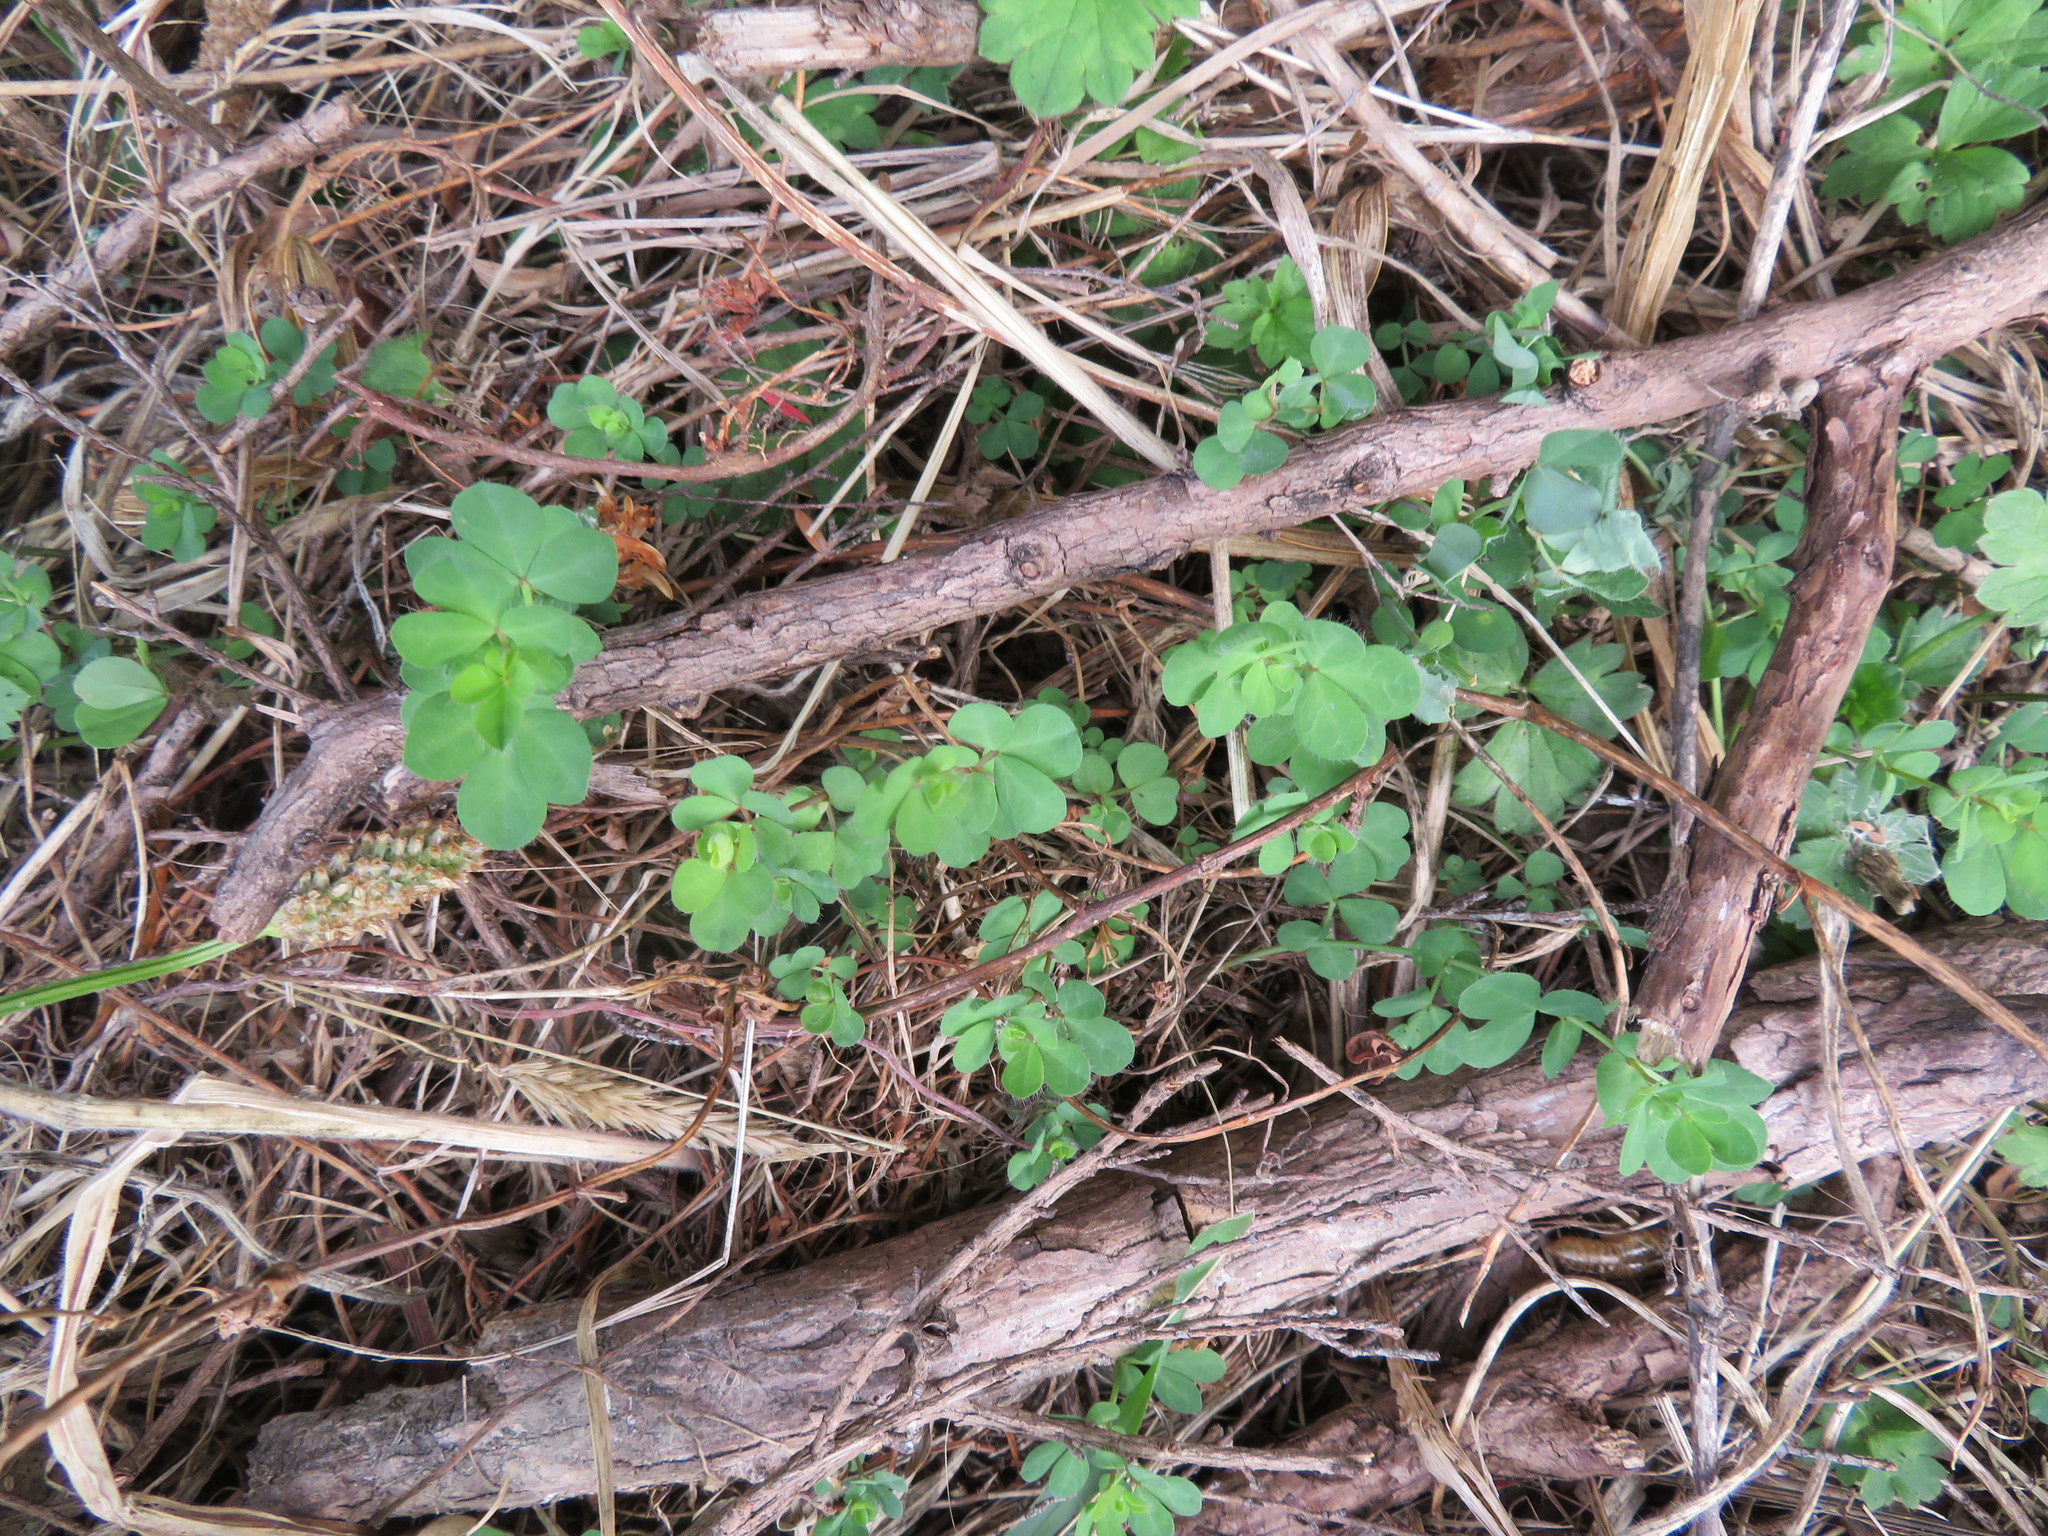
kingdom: Plantae
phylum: Tracheophyta
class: Magnoliopsida
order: Fabales
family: Fabaceae
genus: Lotus
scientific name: Lotus pedunculatus
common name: Greater birdsfoot-trefoil
